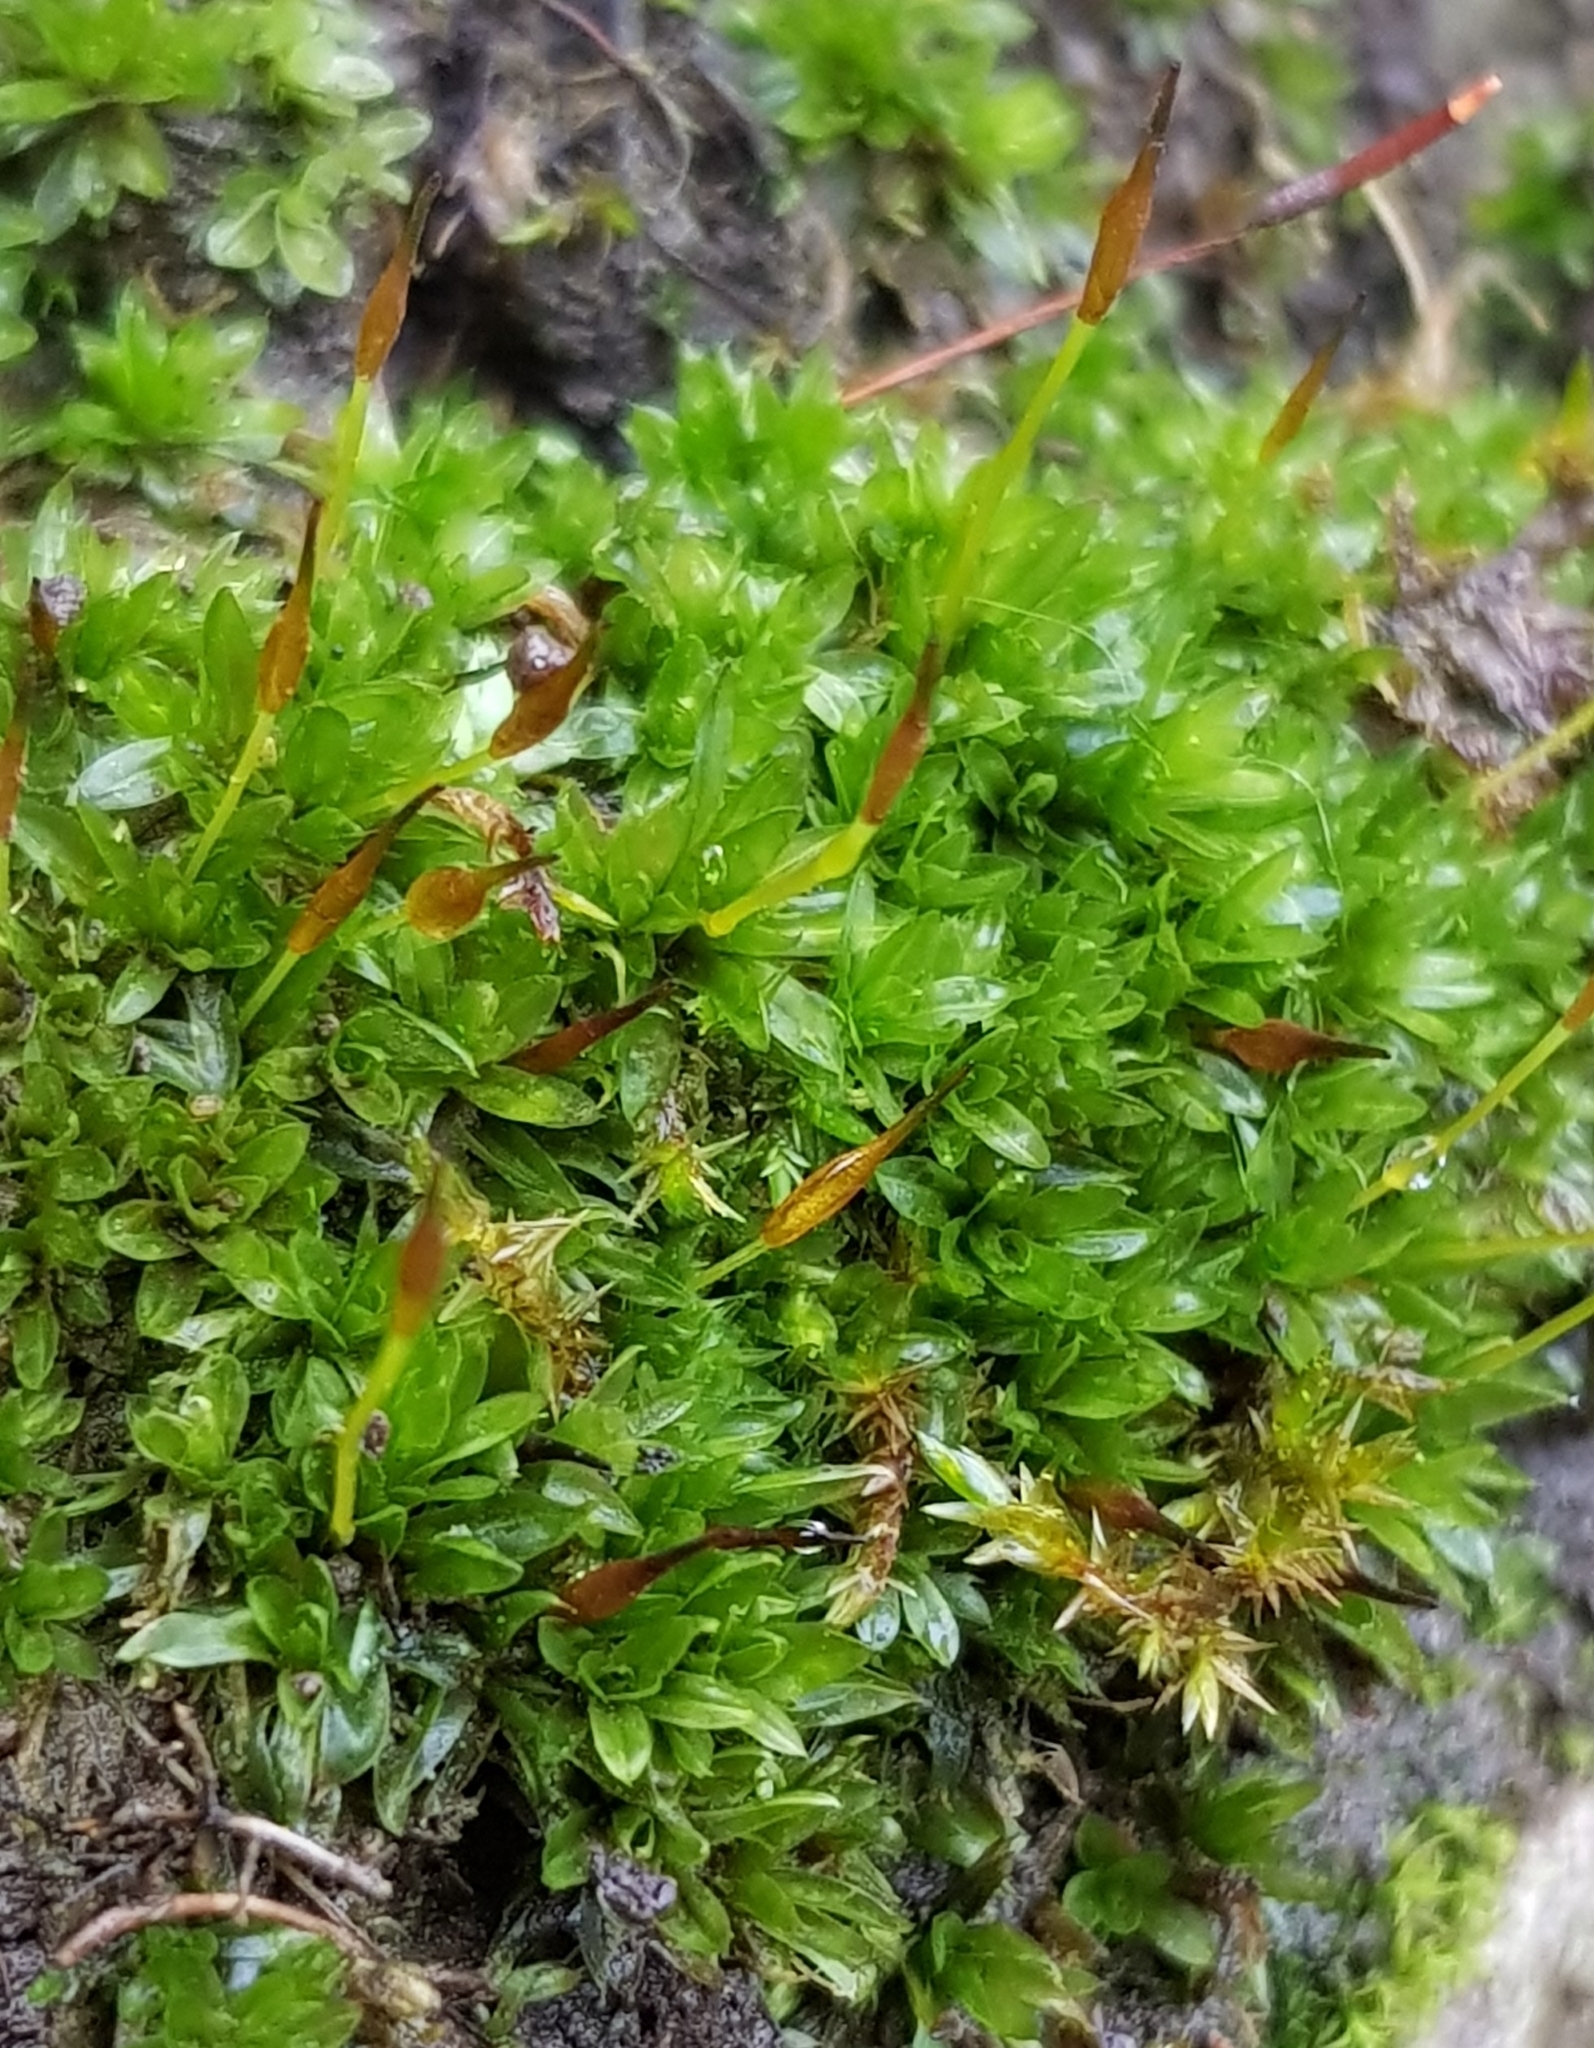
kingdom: Plantae
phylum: Bryophyta
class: Bryopsida
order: Pottiales
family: Pottiaceae
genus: Tortula
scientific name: Tortula subulata
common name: Upright screw-moss
